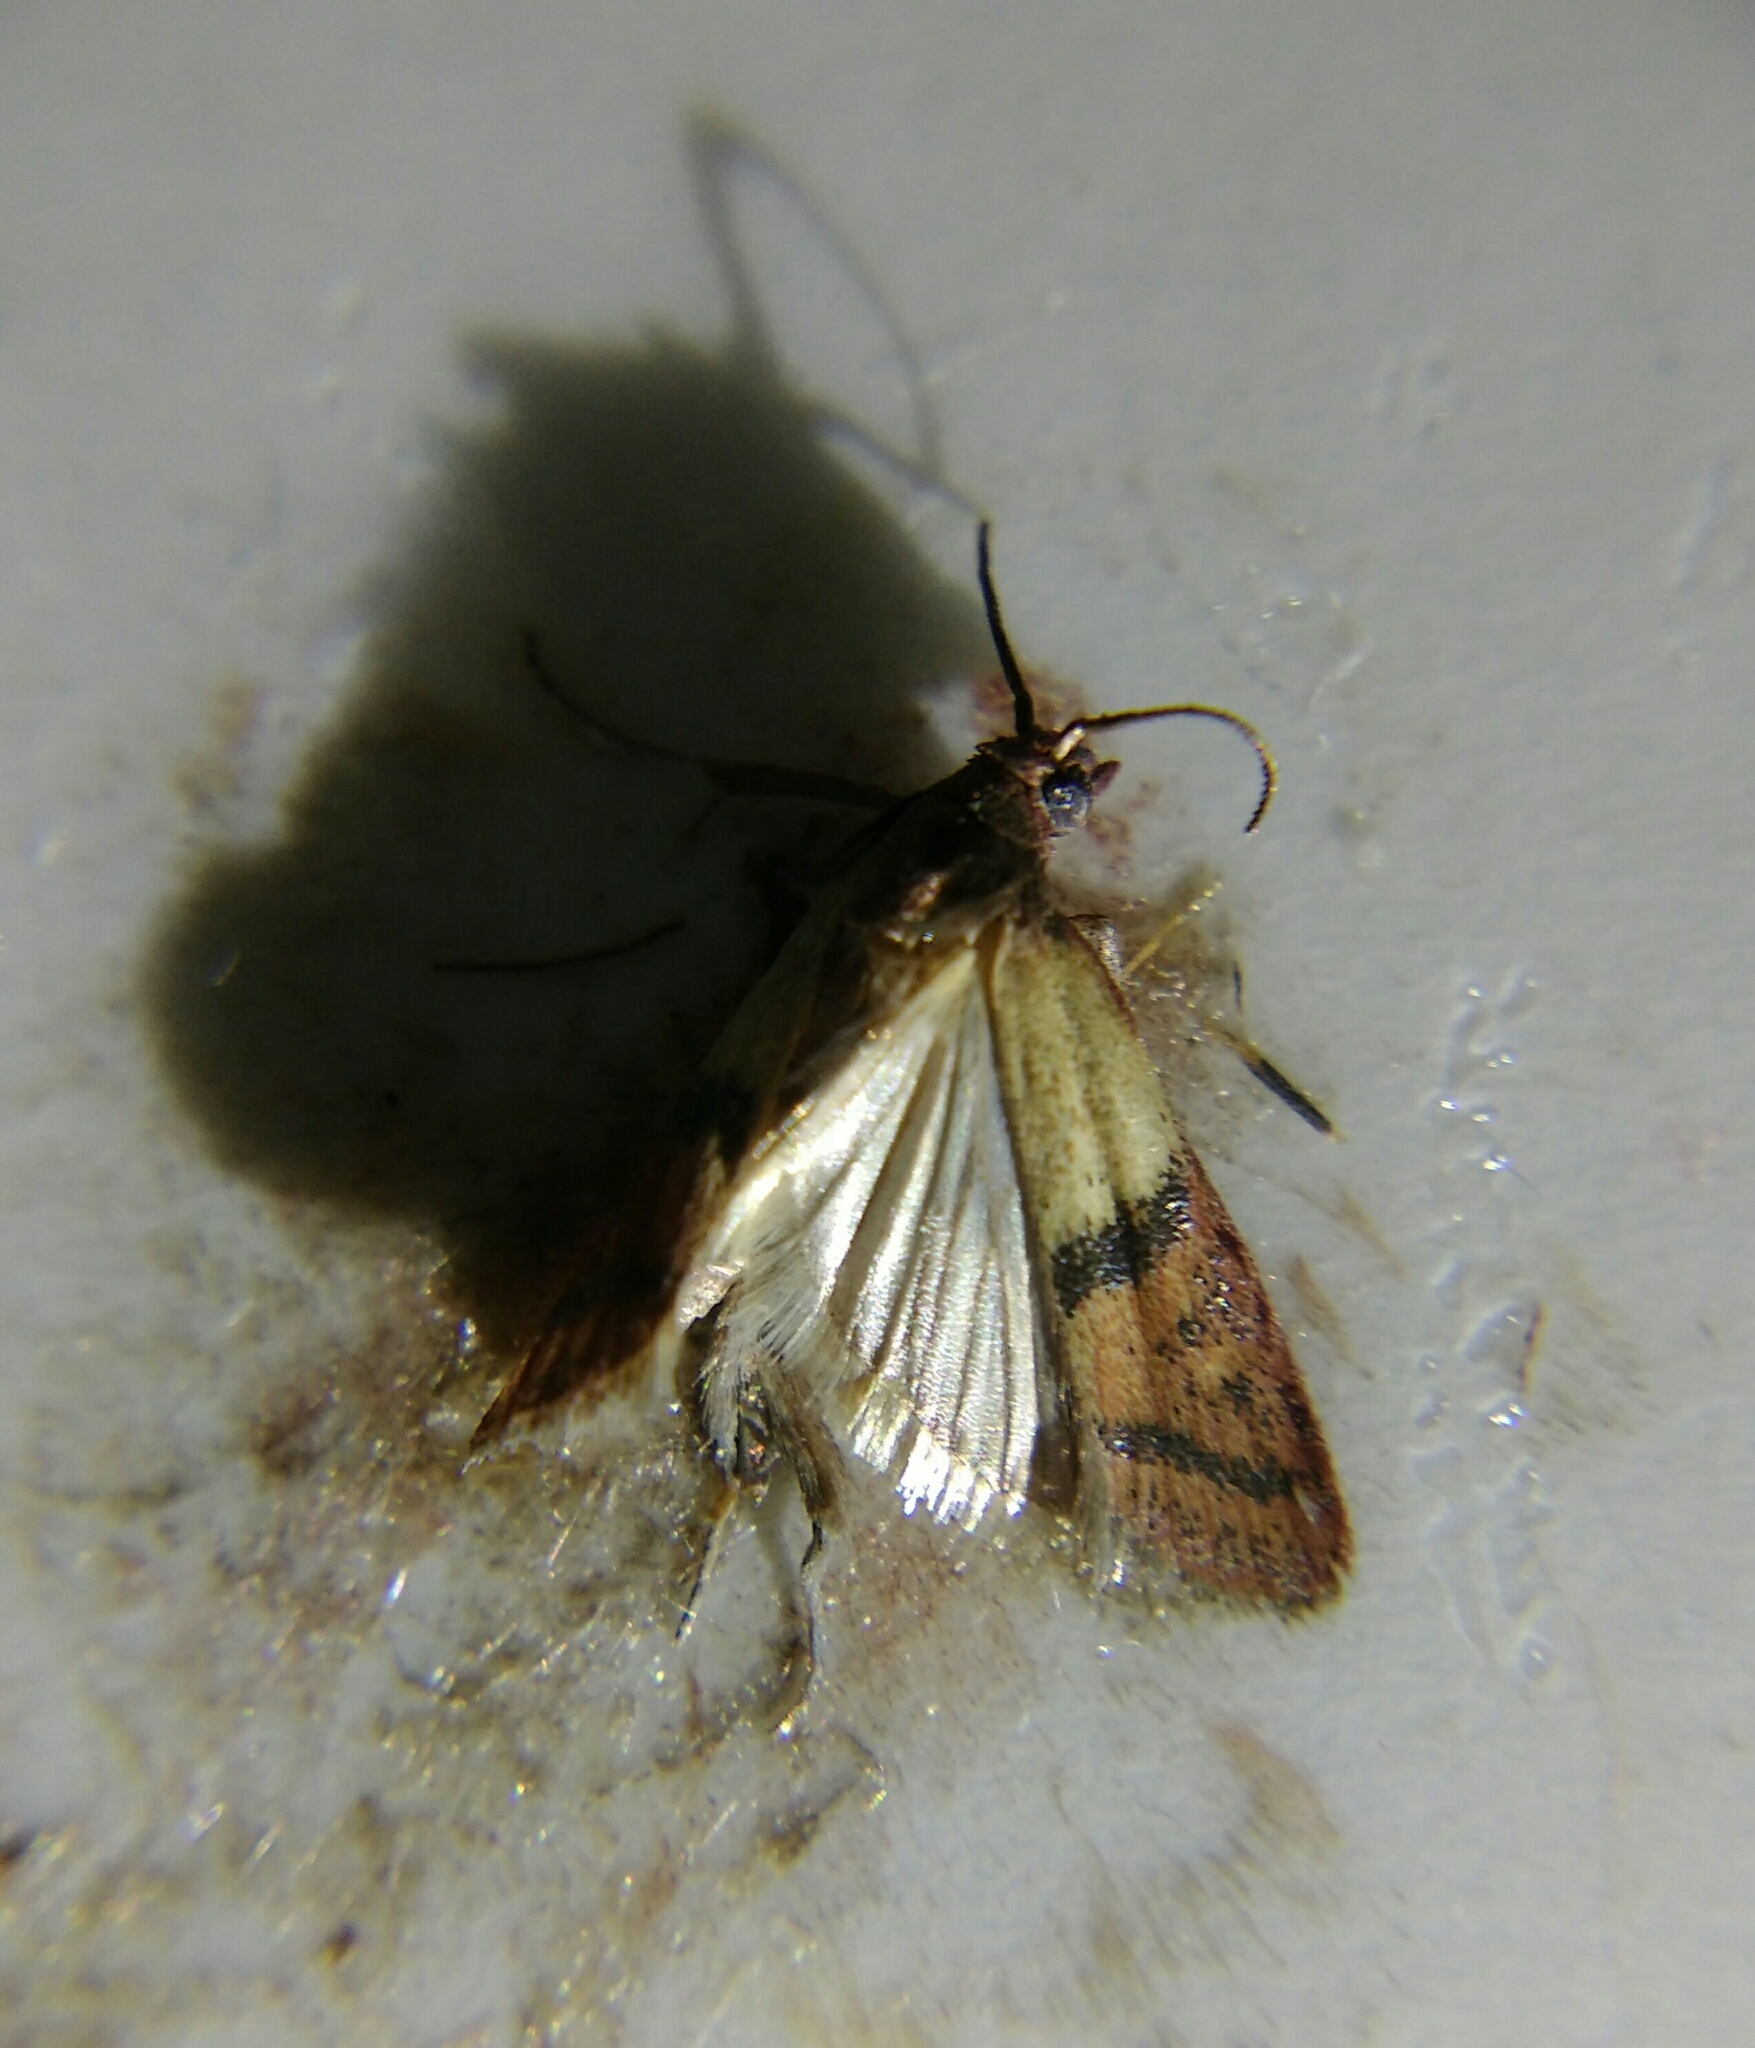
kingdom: Animalia
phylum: Arthropoda
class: Insecta
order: Lepidoptera
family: Pyralidae
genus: Plodia
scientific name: Plodia interpunctella
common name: Indian meal moth
